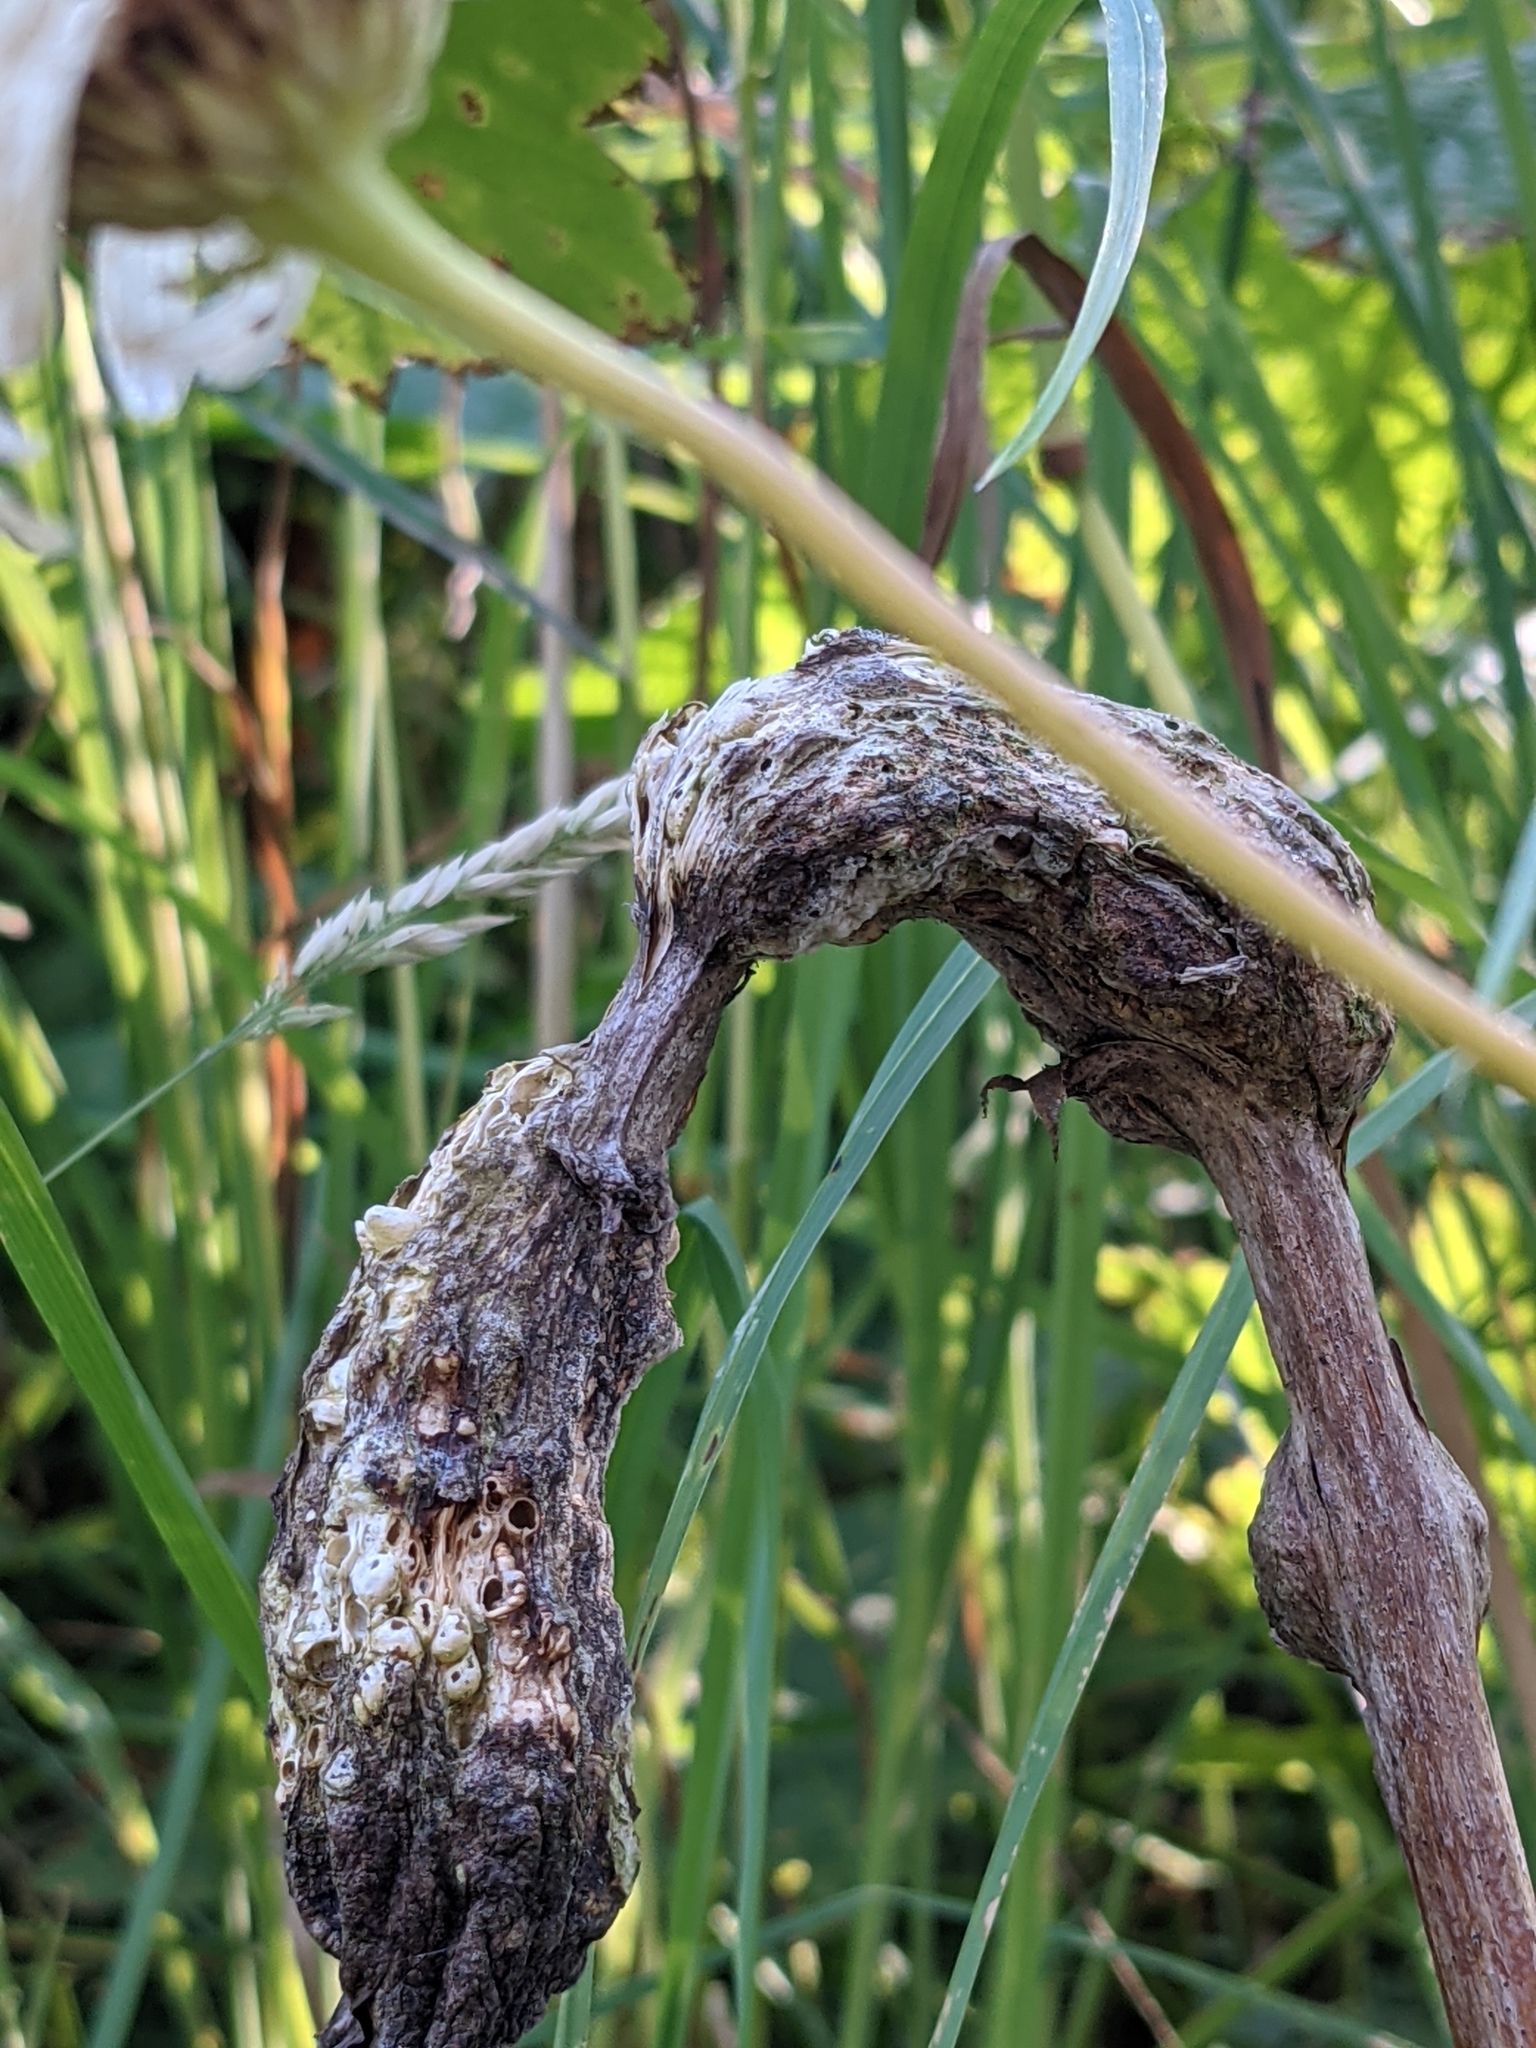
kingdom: Animalia
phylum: Arthropoda
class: Insecta
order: Hymenoptera
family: Cynipidae
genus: Diastrophus
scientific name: Diastrophus
